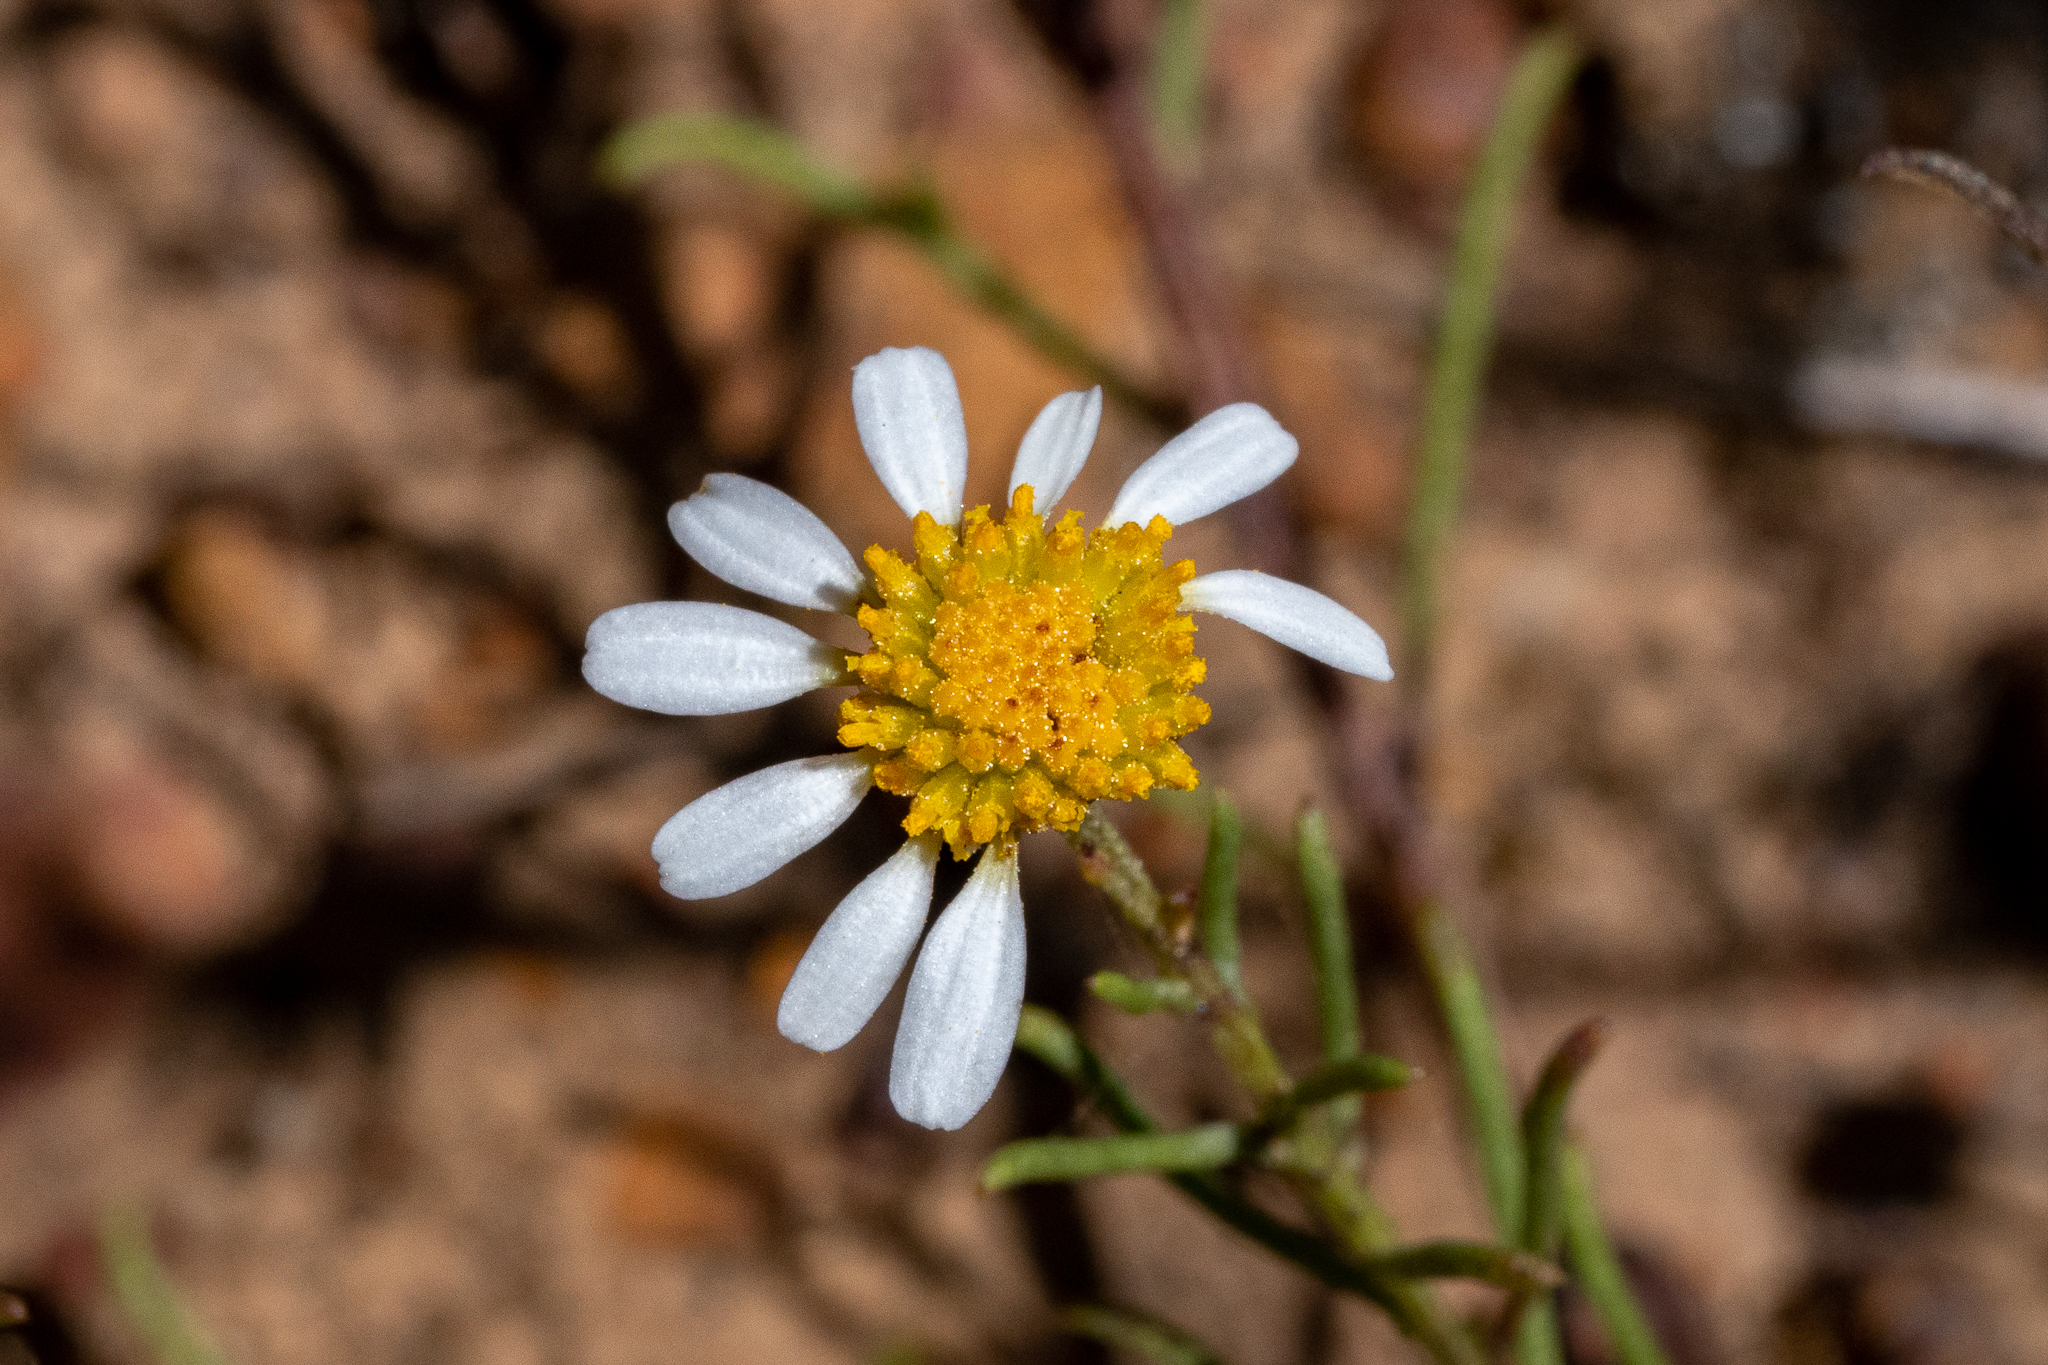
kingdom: Plantae
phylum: Tracheophyta
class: Magnoliopsida
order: Asterales
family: Asteraceae
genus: Cymbopappus
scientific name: Cymbopappus adenosolen
